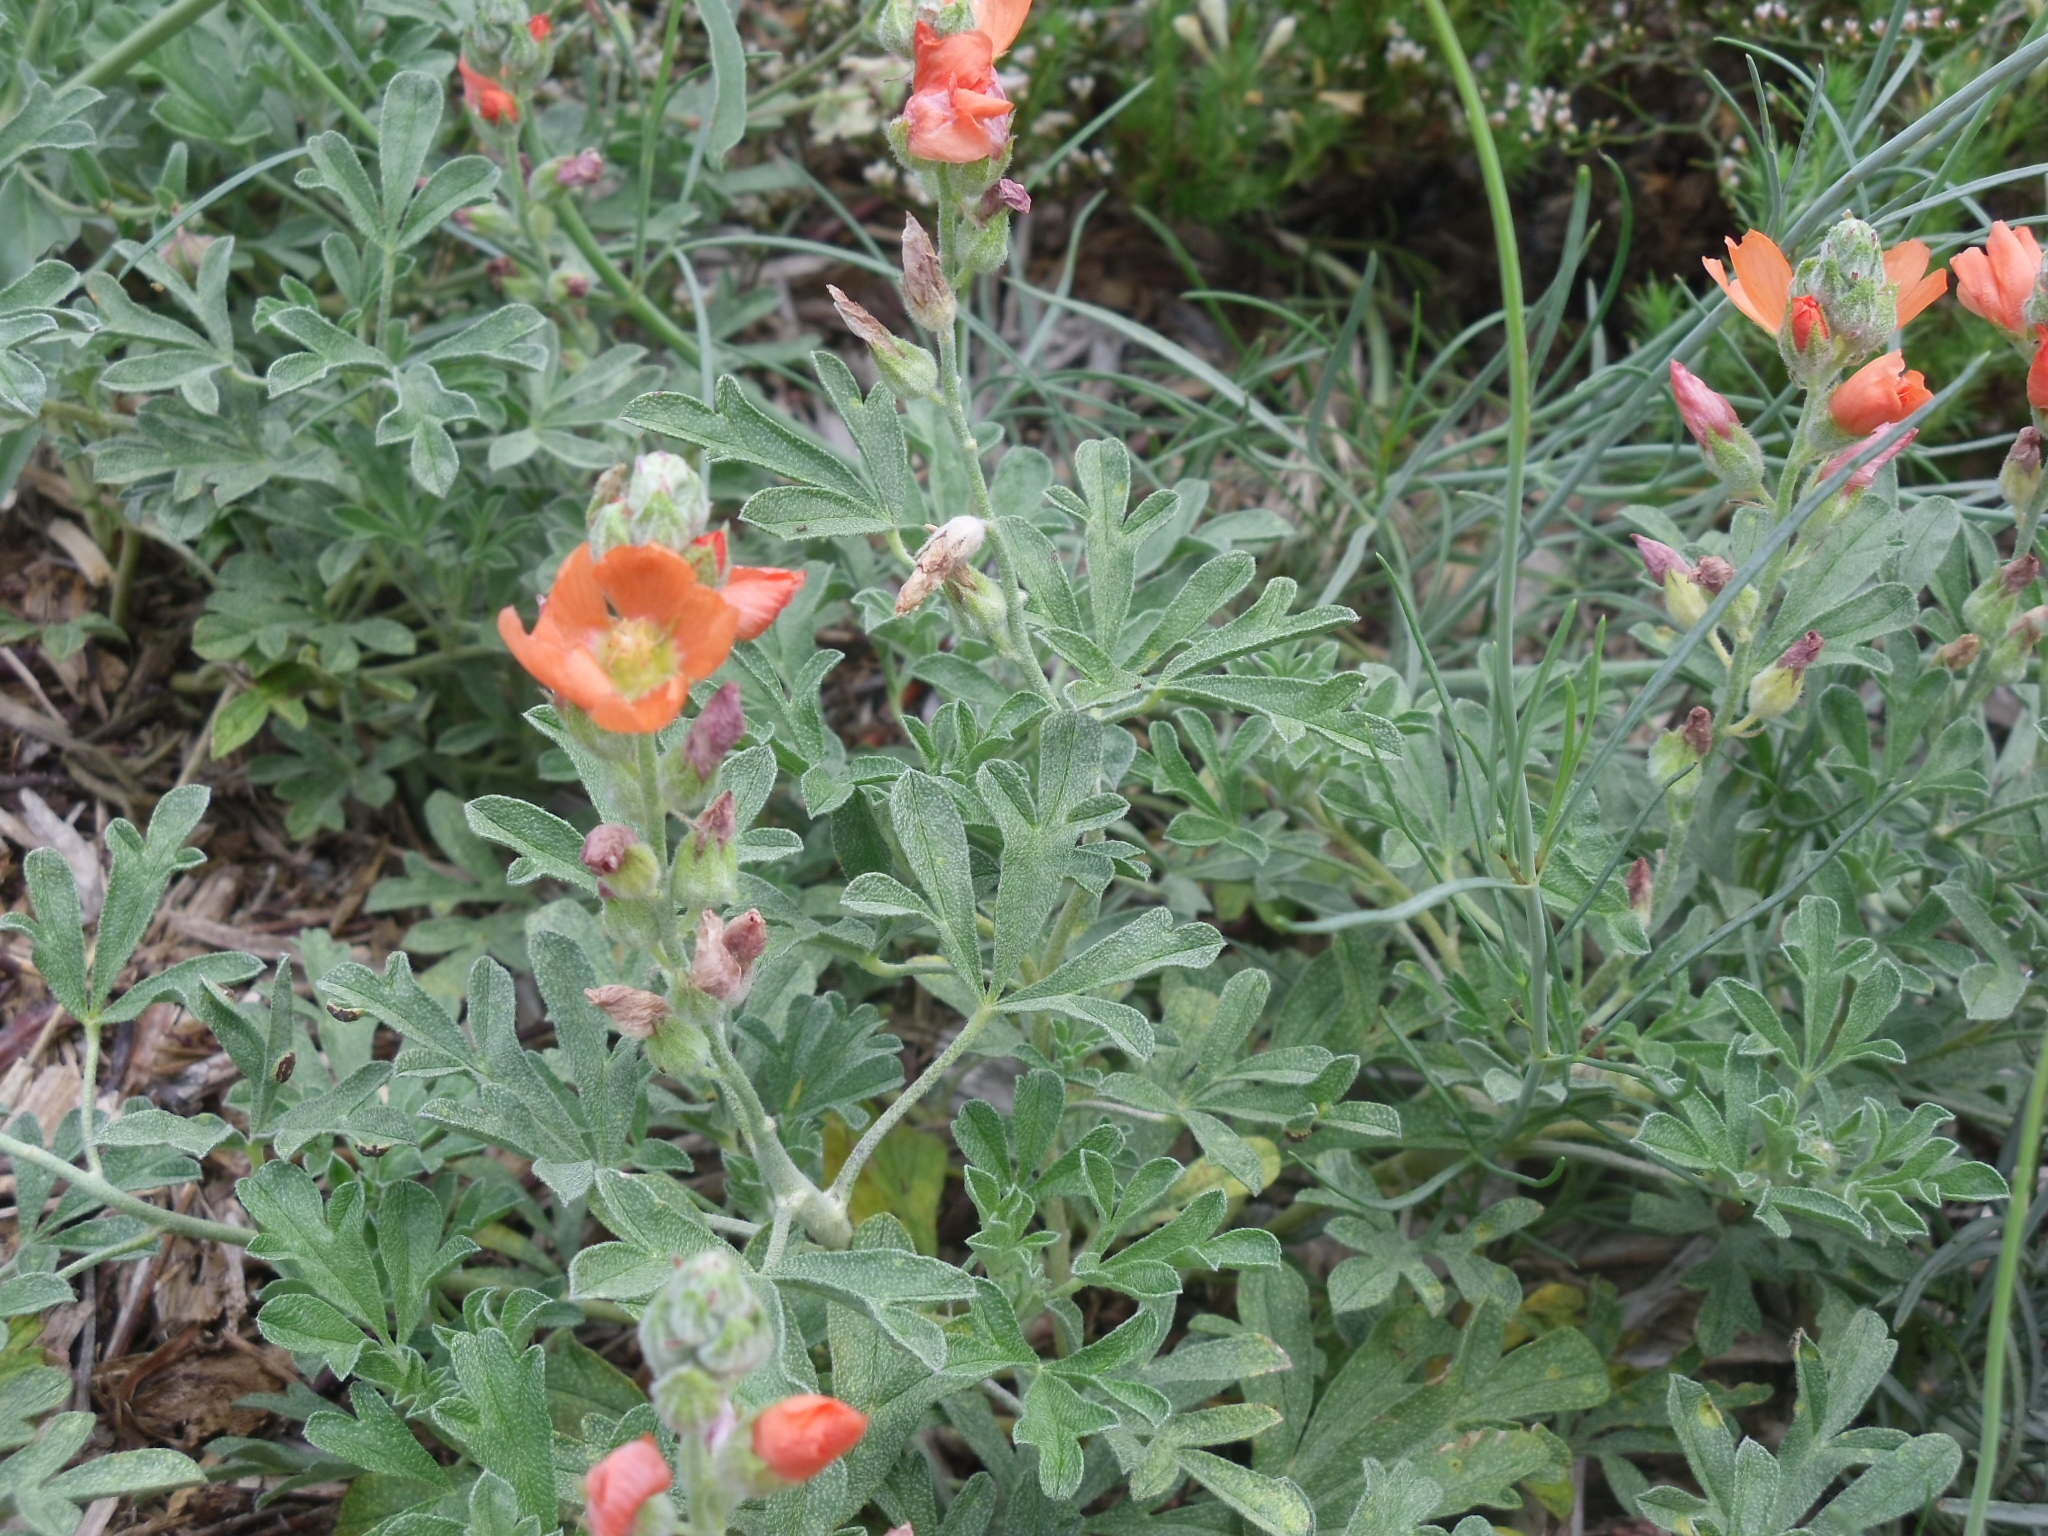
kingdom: Plantae
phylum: Tracheophyta
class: Magnoliopsida
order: Malvales
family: Malvaceae
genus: Sphaeralcea
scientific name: Sphaeralcea coccinea
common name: Moss-rose
